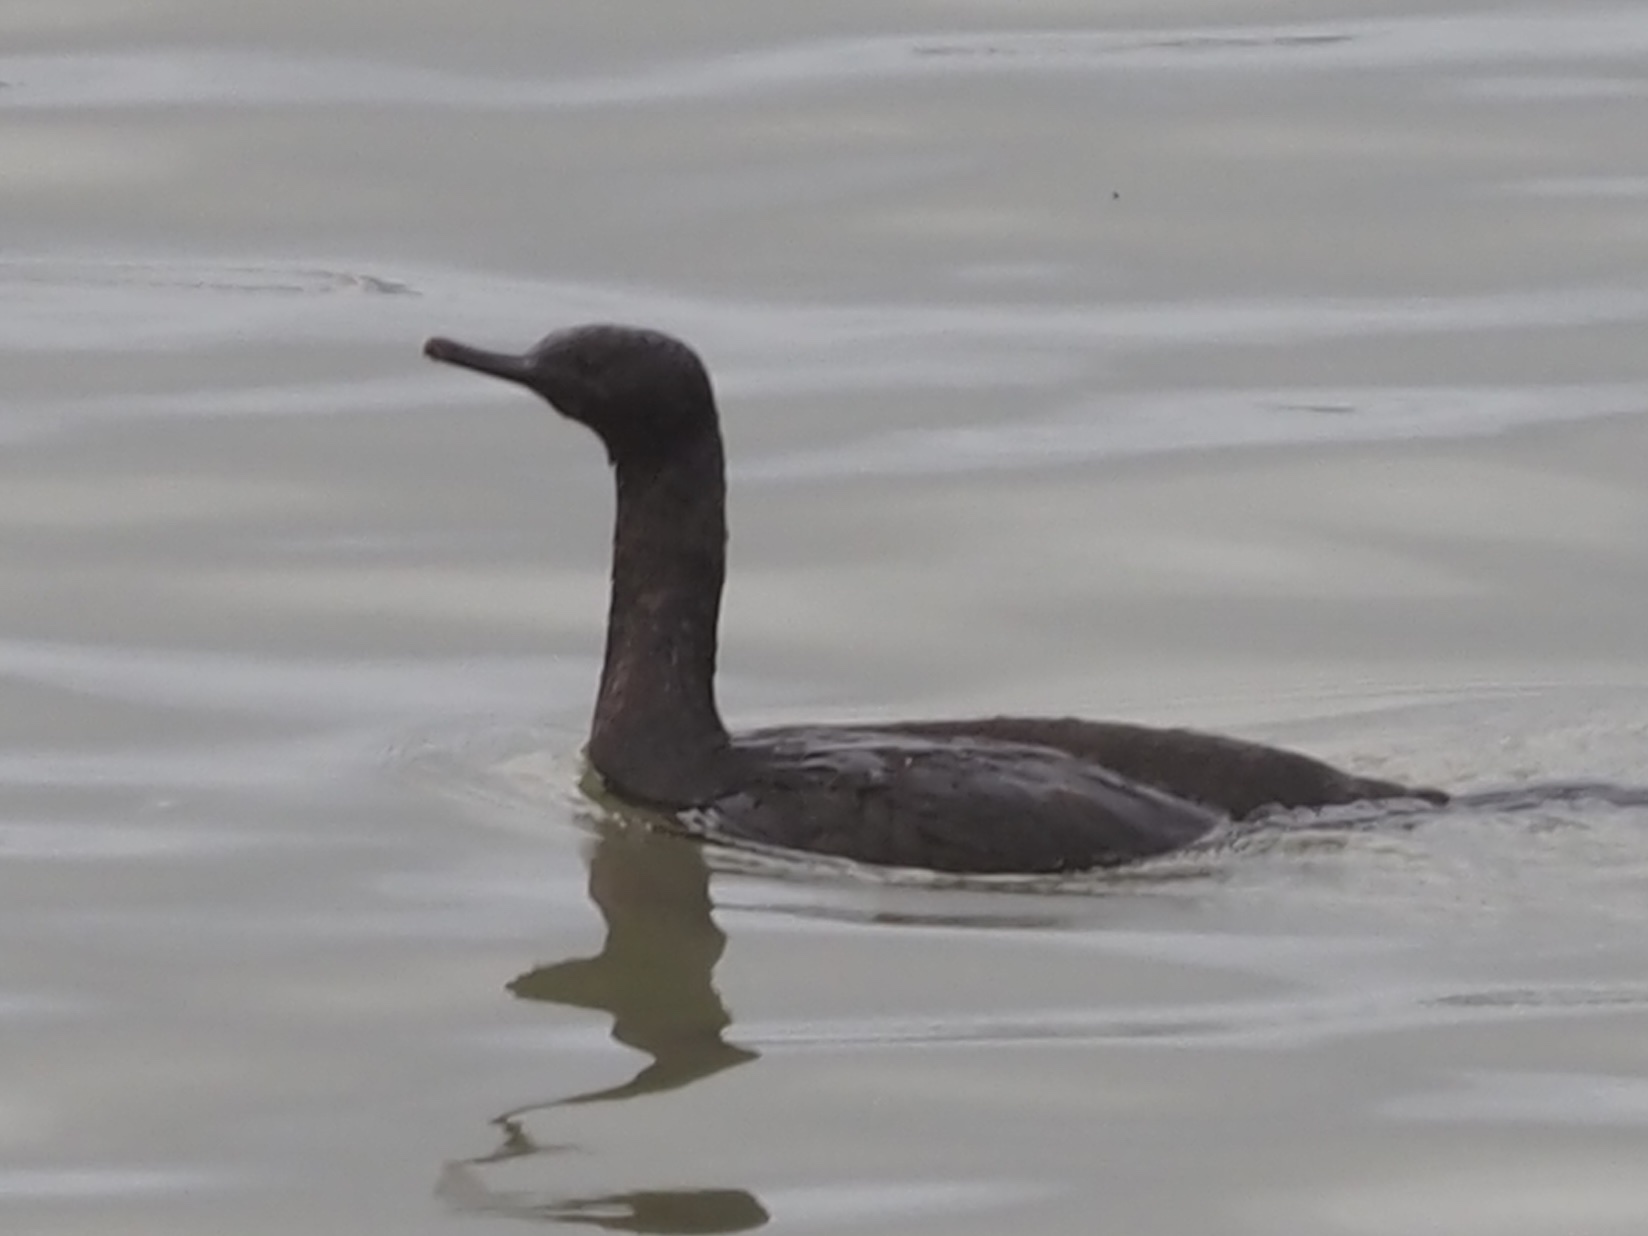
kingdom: Animalia
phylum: Chordata
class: Aves
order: Suliformes
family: Phalacrocoracidae
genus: Phalacrocorax
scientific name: Phalacrocorax pelagicus
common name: Pelagic cormorant
